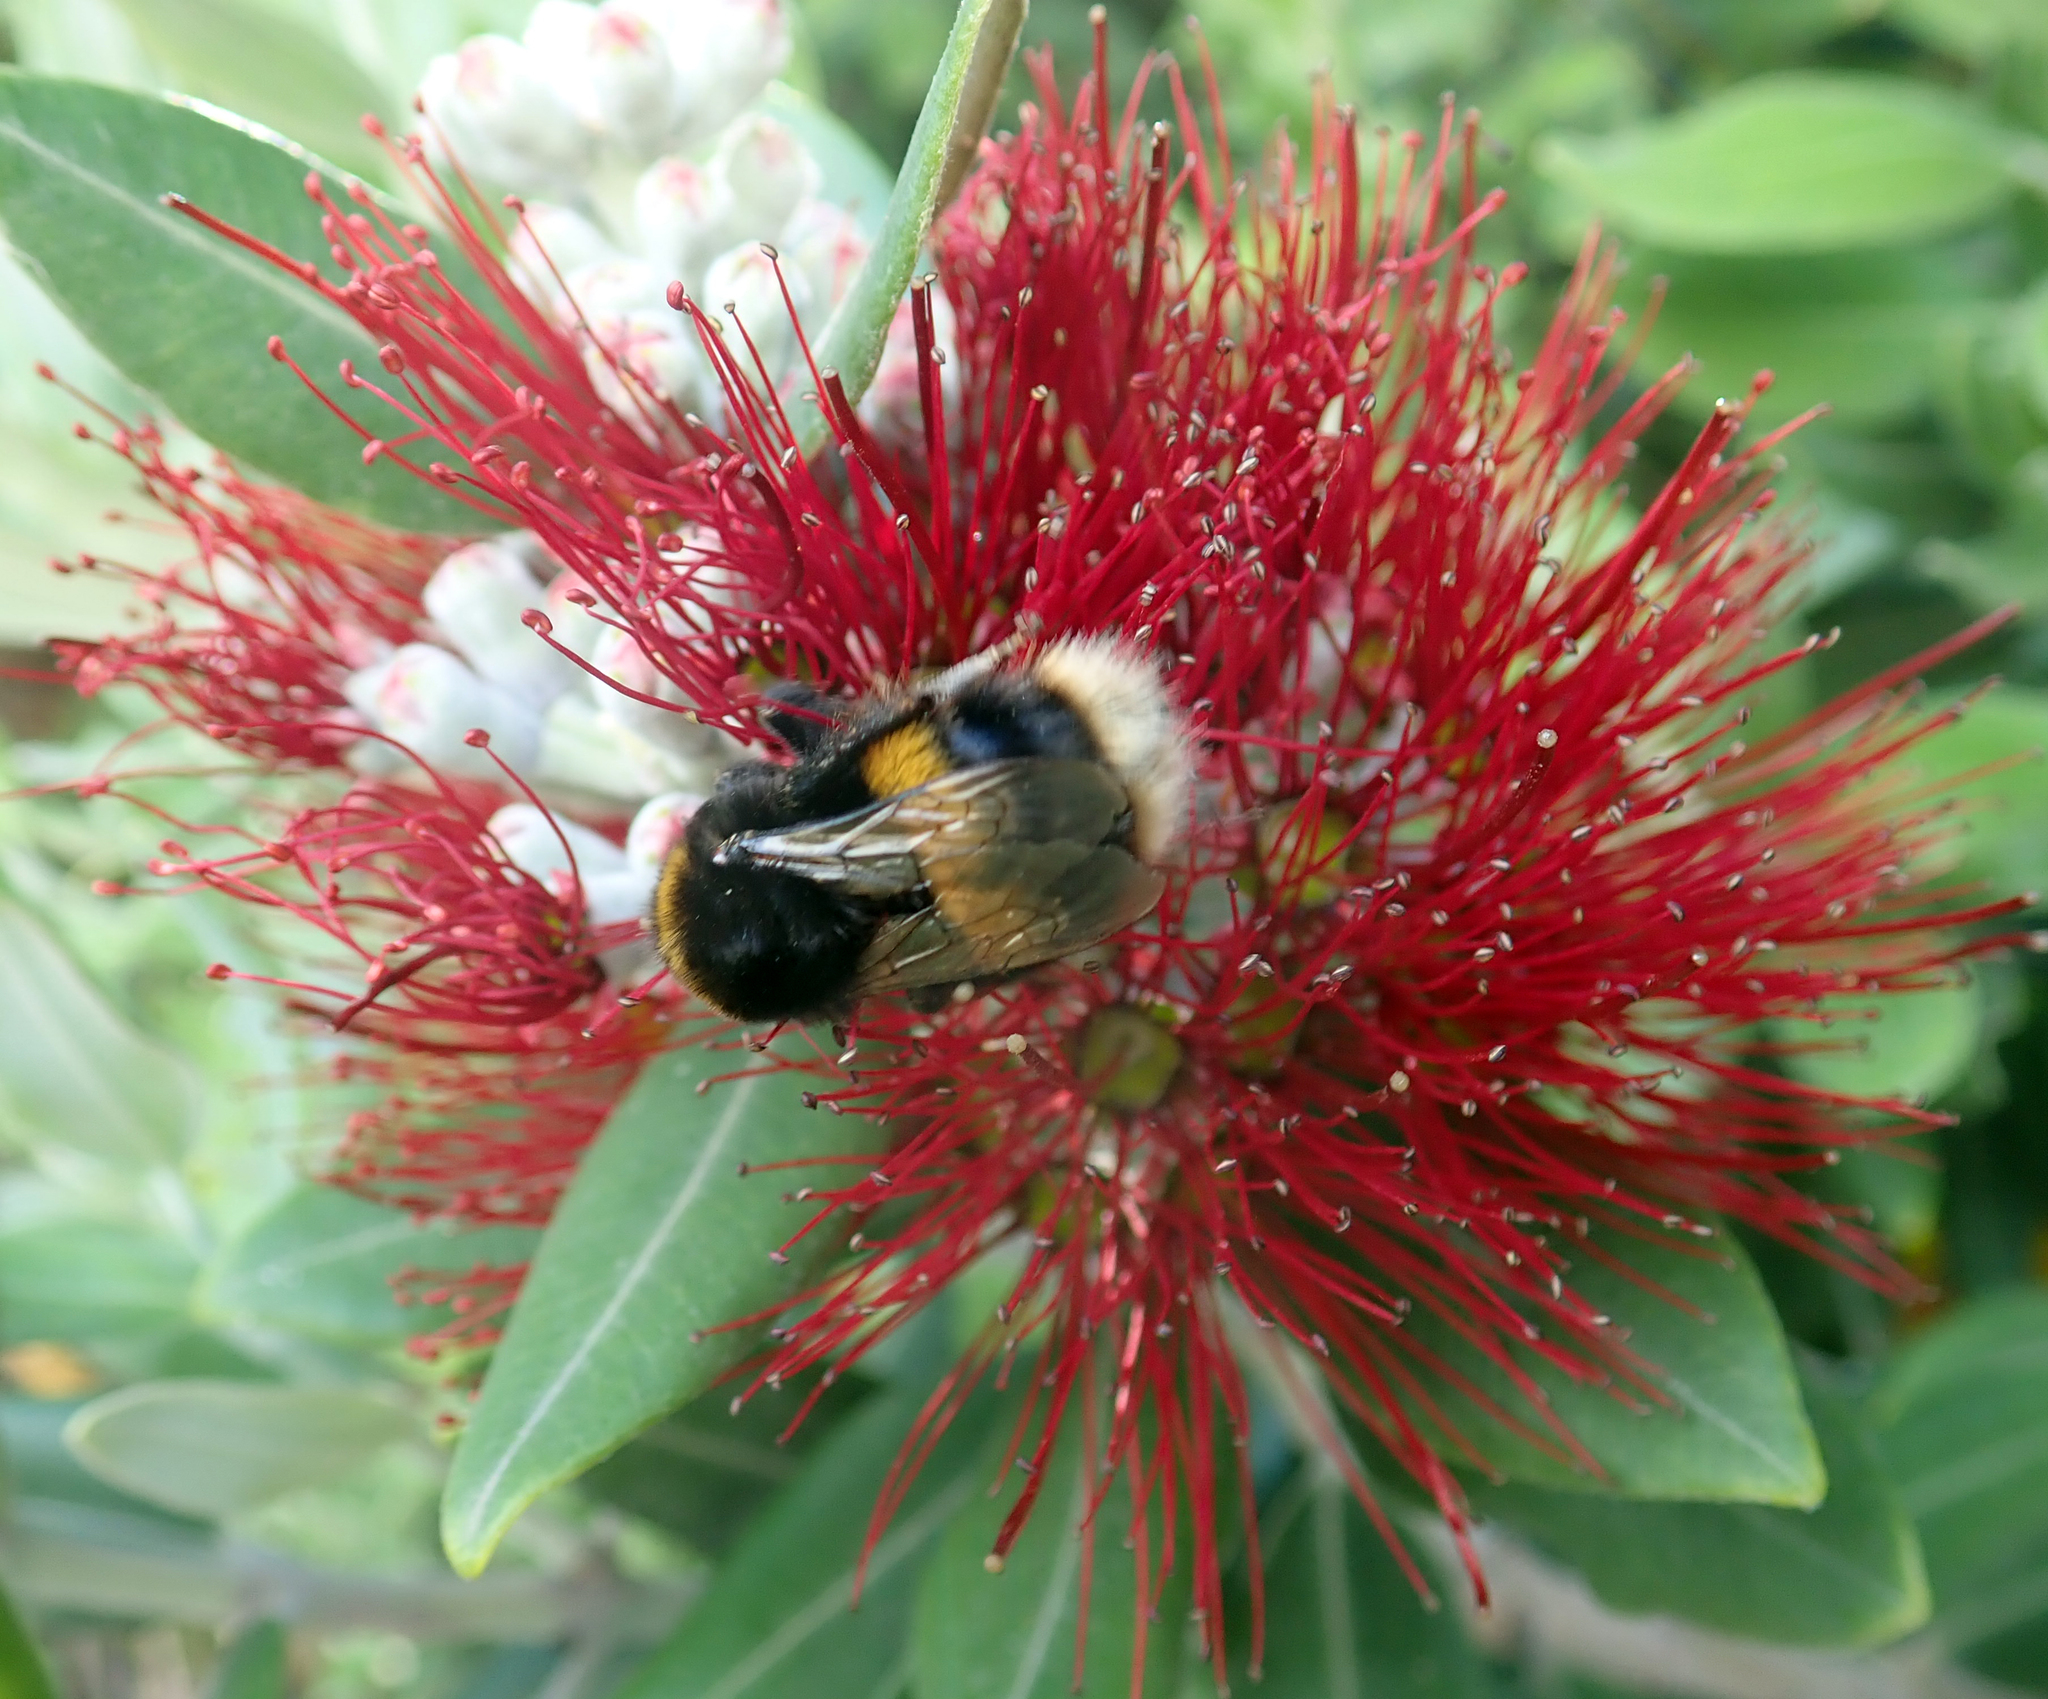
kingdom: Animalia
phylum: Arthropoda
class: Insecta
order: Hymenoptera
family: Apidae
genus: Bombus
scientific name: Bombus terrestris
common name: Buff-tailed bumblebee
